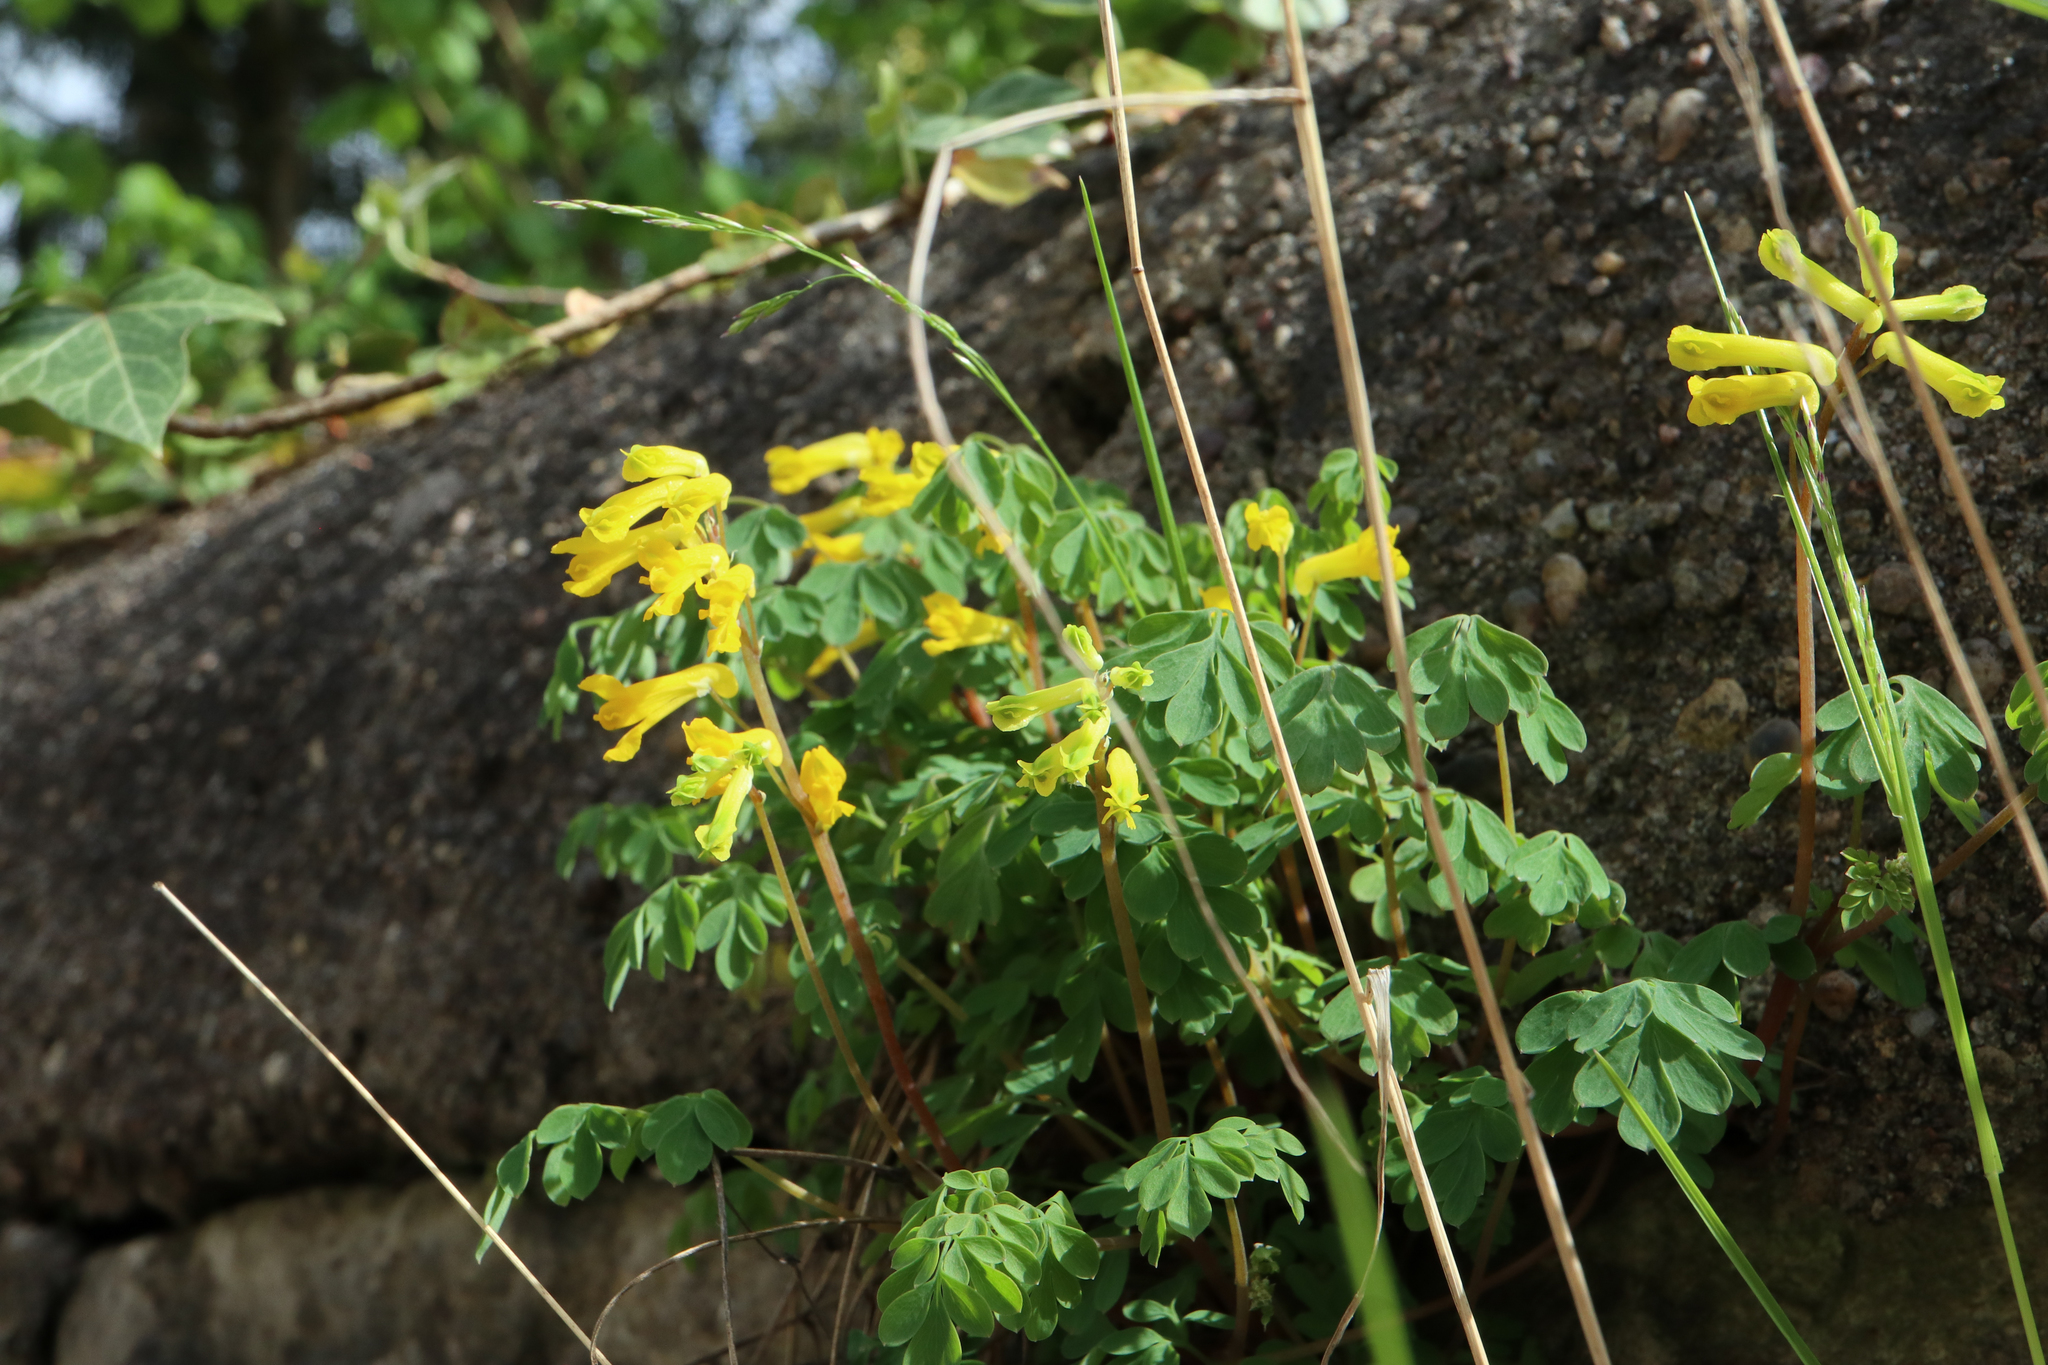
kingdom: Plantae
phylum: Tracheophyta
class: Magnoliopsida
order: Ranunculales
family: Papaveraceae
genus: Pseudofumaria
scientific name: Pseudofumaria lutea
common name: Yellow corydalis
